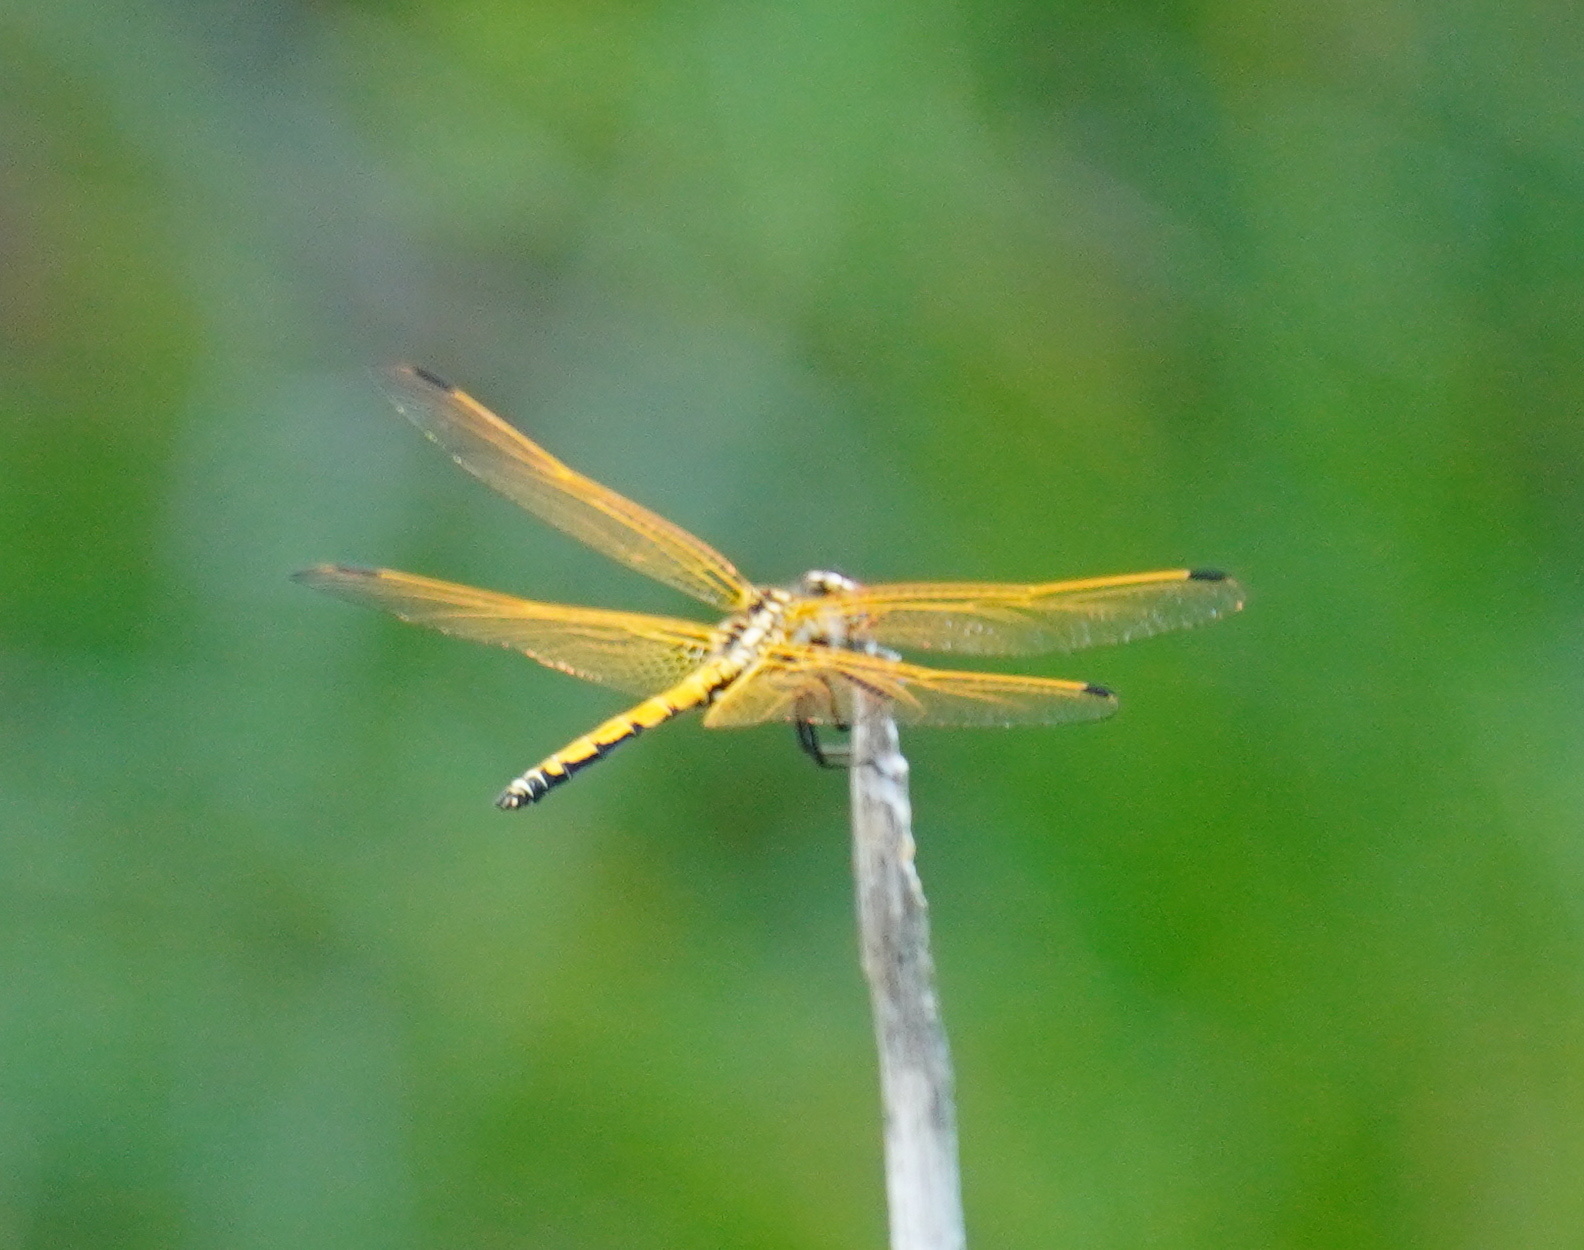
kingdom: Animalia
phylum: Arthropoda
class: Insecta
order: Odonata
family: Libellulidae
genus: Trithemis
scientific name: Trithemis arteriosa
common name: Red-veined dropwing
